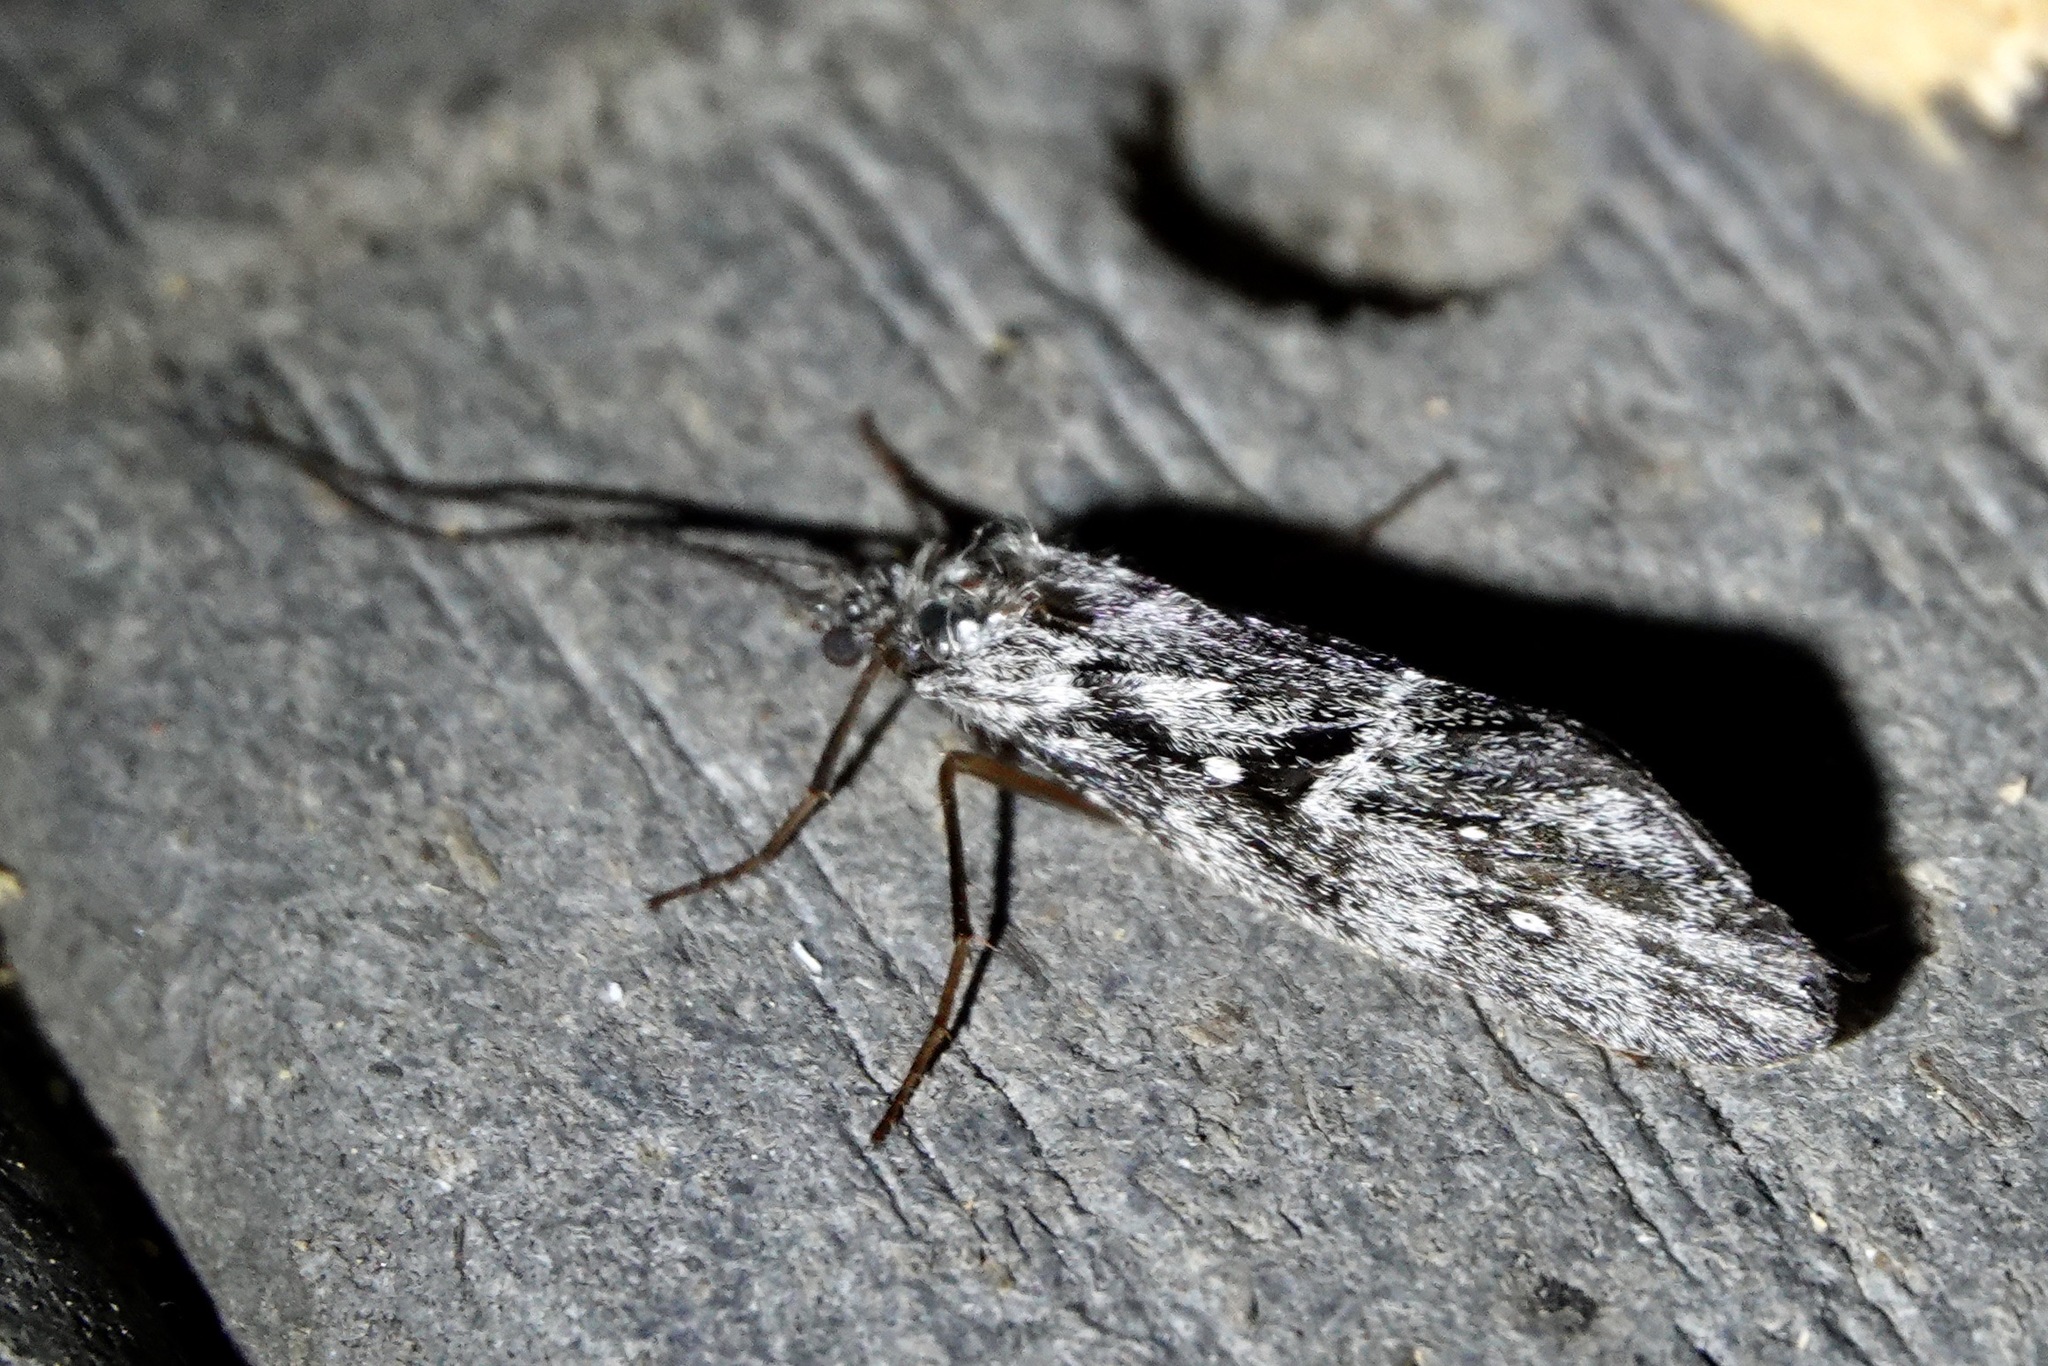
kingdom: Animalia
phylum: Arthropoda
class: Insecta
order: Trichoptera
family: Phryganeidae
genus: Yphria
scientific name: Yphria californica
